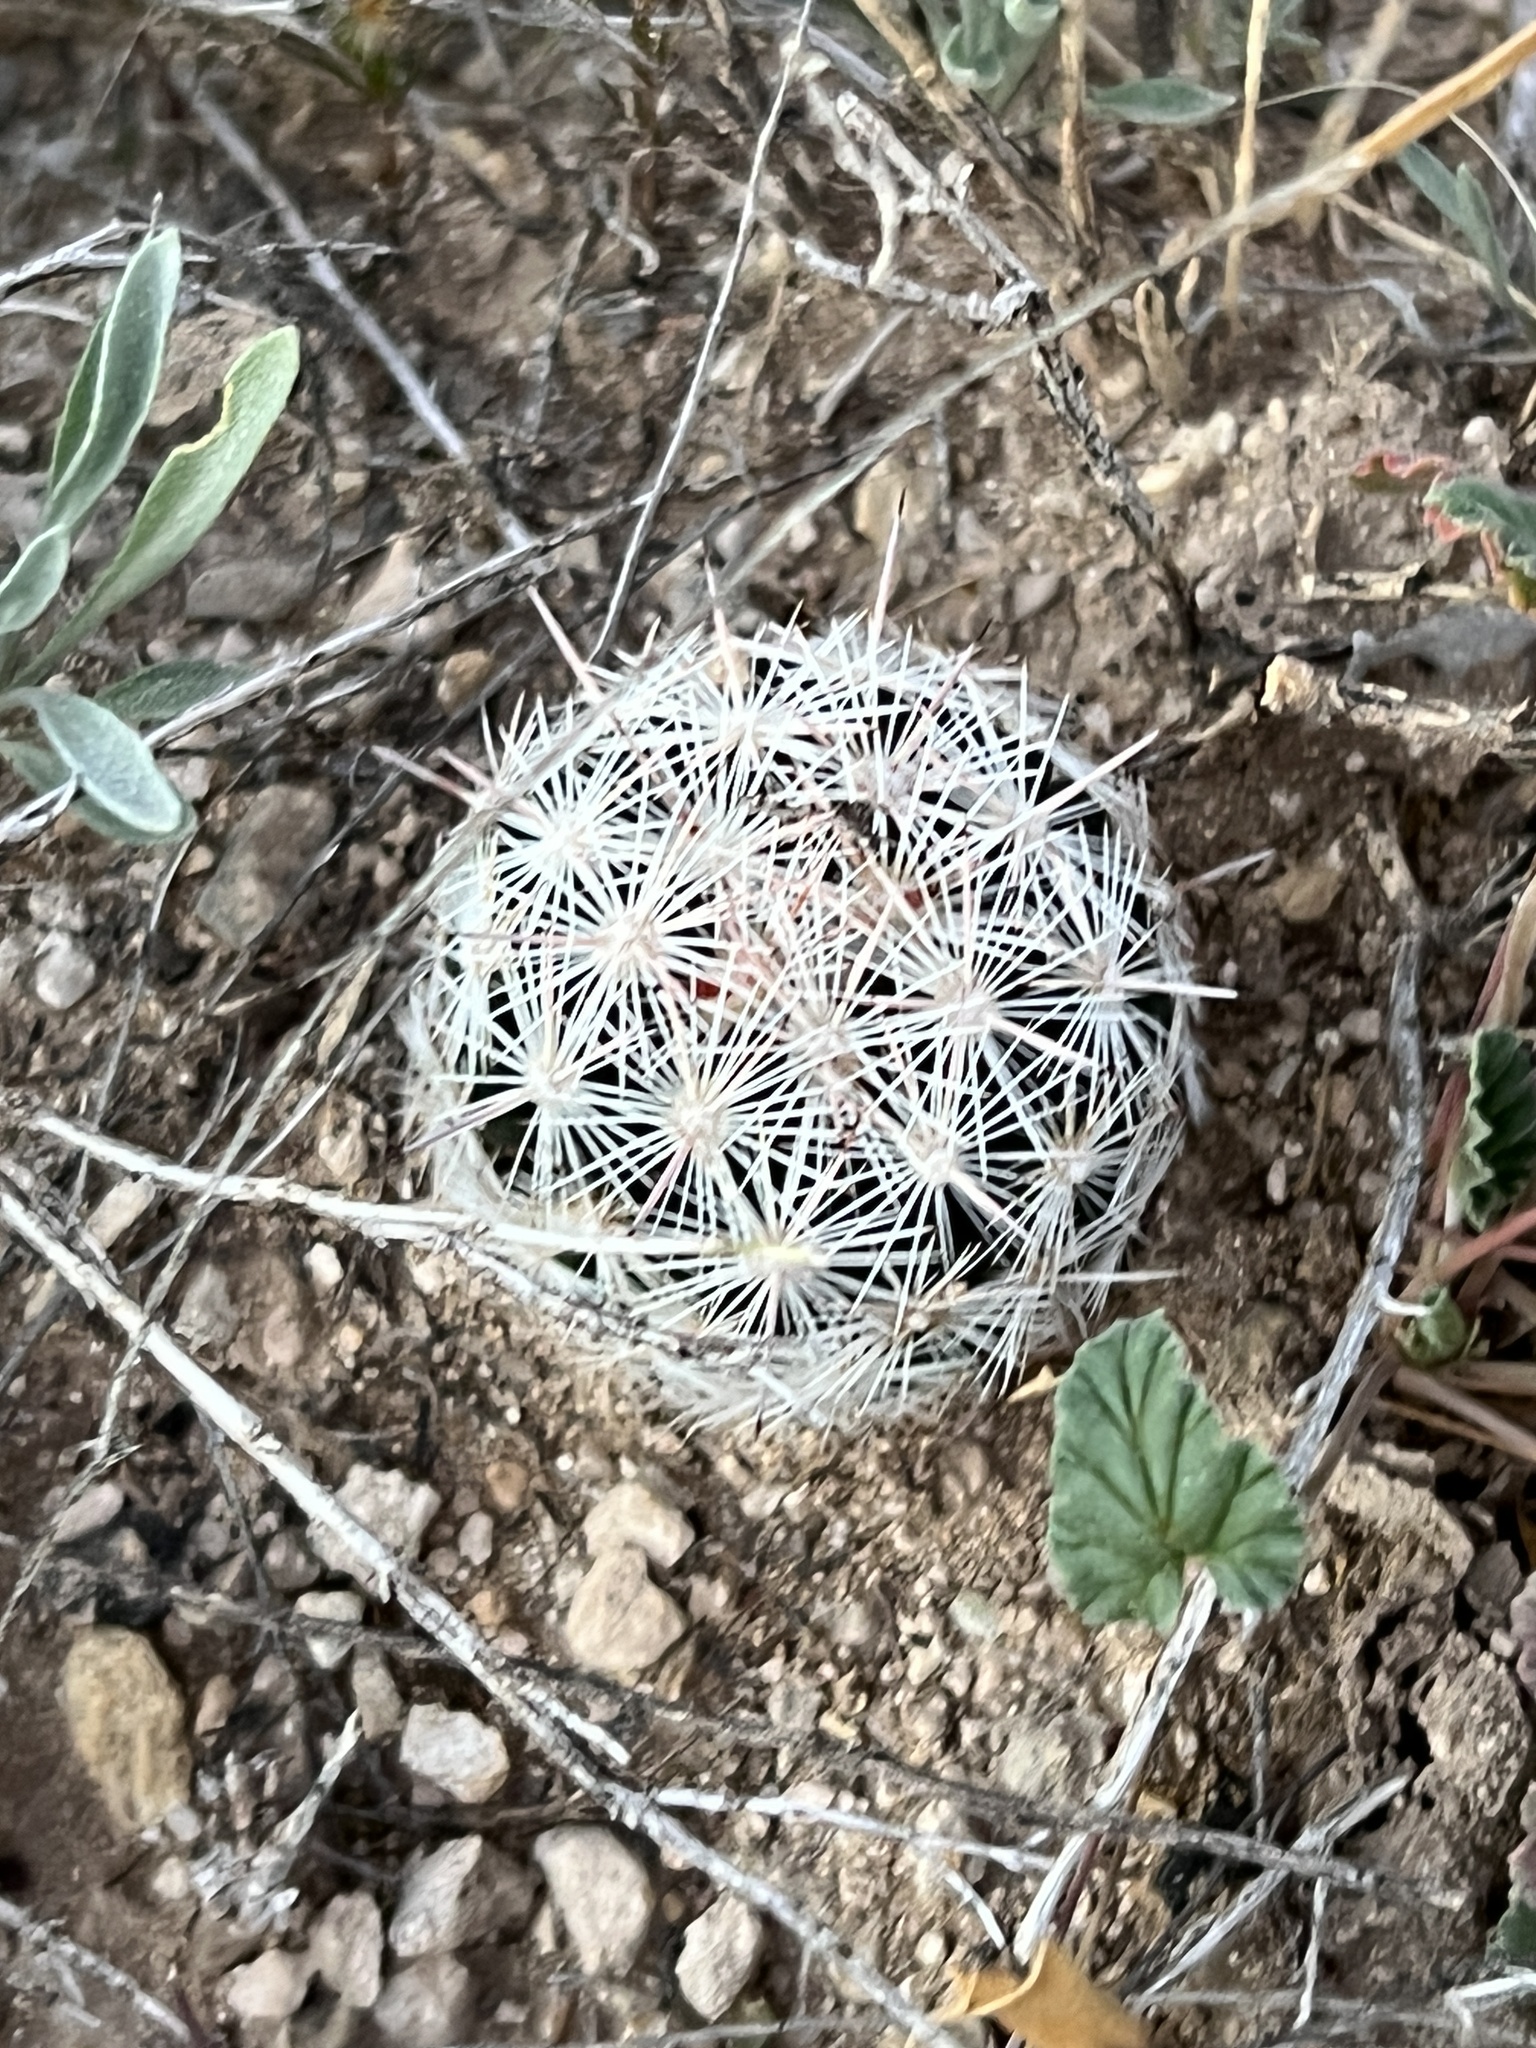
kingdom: Plantae
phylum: Tracheophyta
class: Magnoliopsida
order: Caryophyllales
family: Cactaceae
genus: Pelecyphora
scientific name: Pelecyphora vivipara
